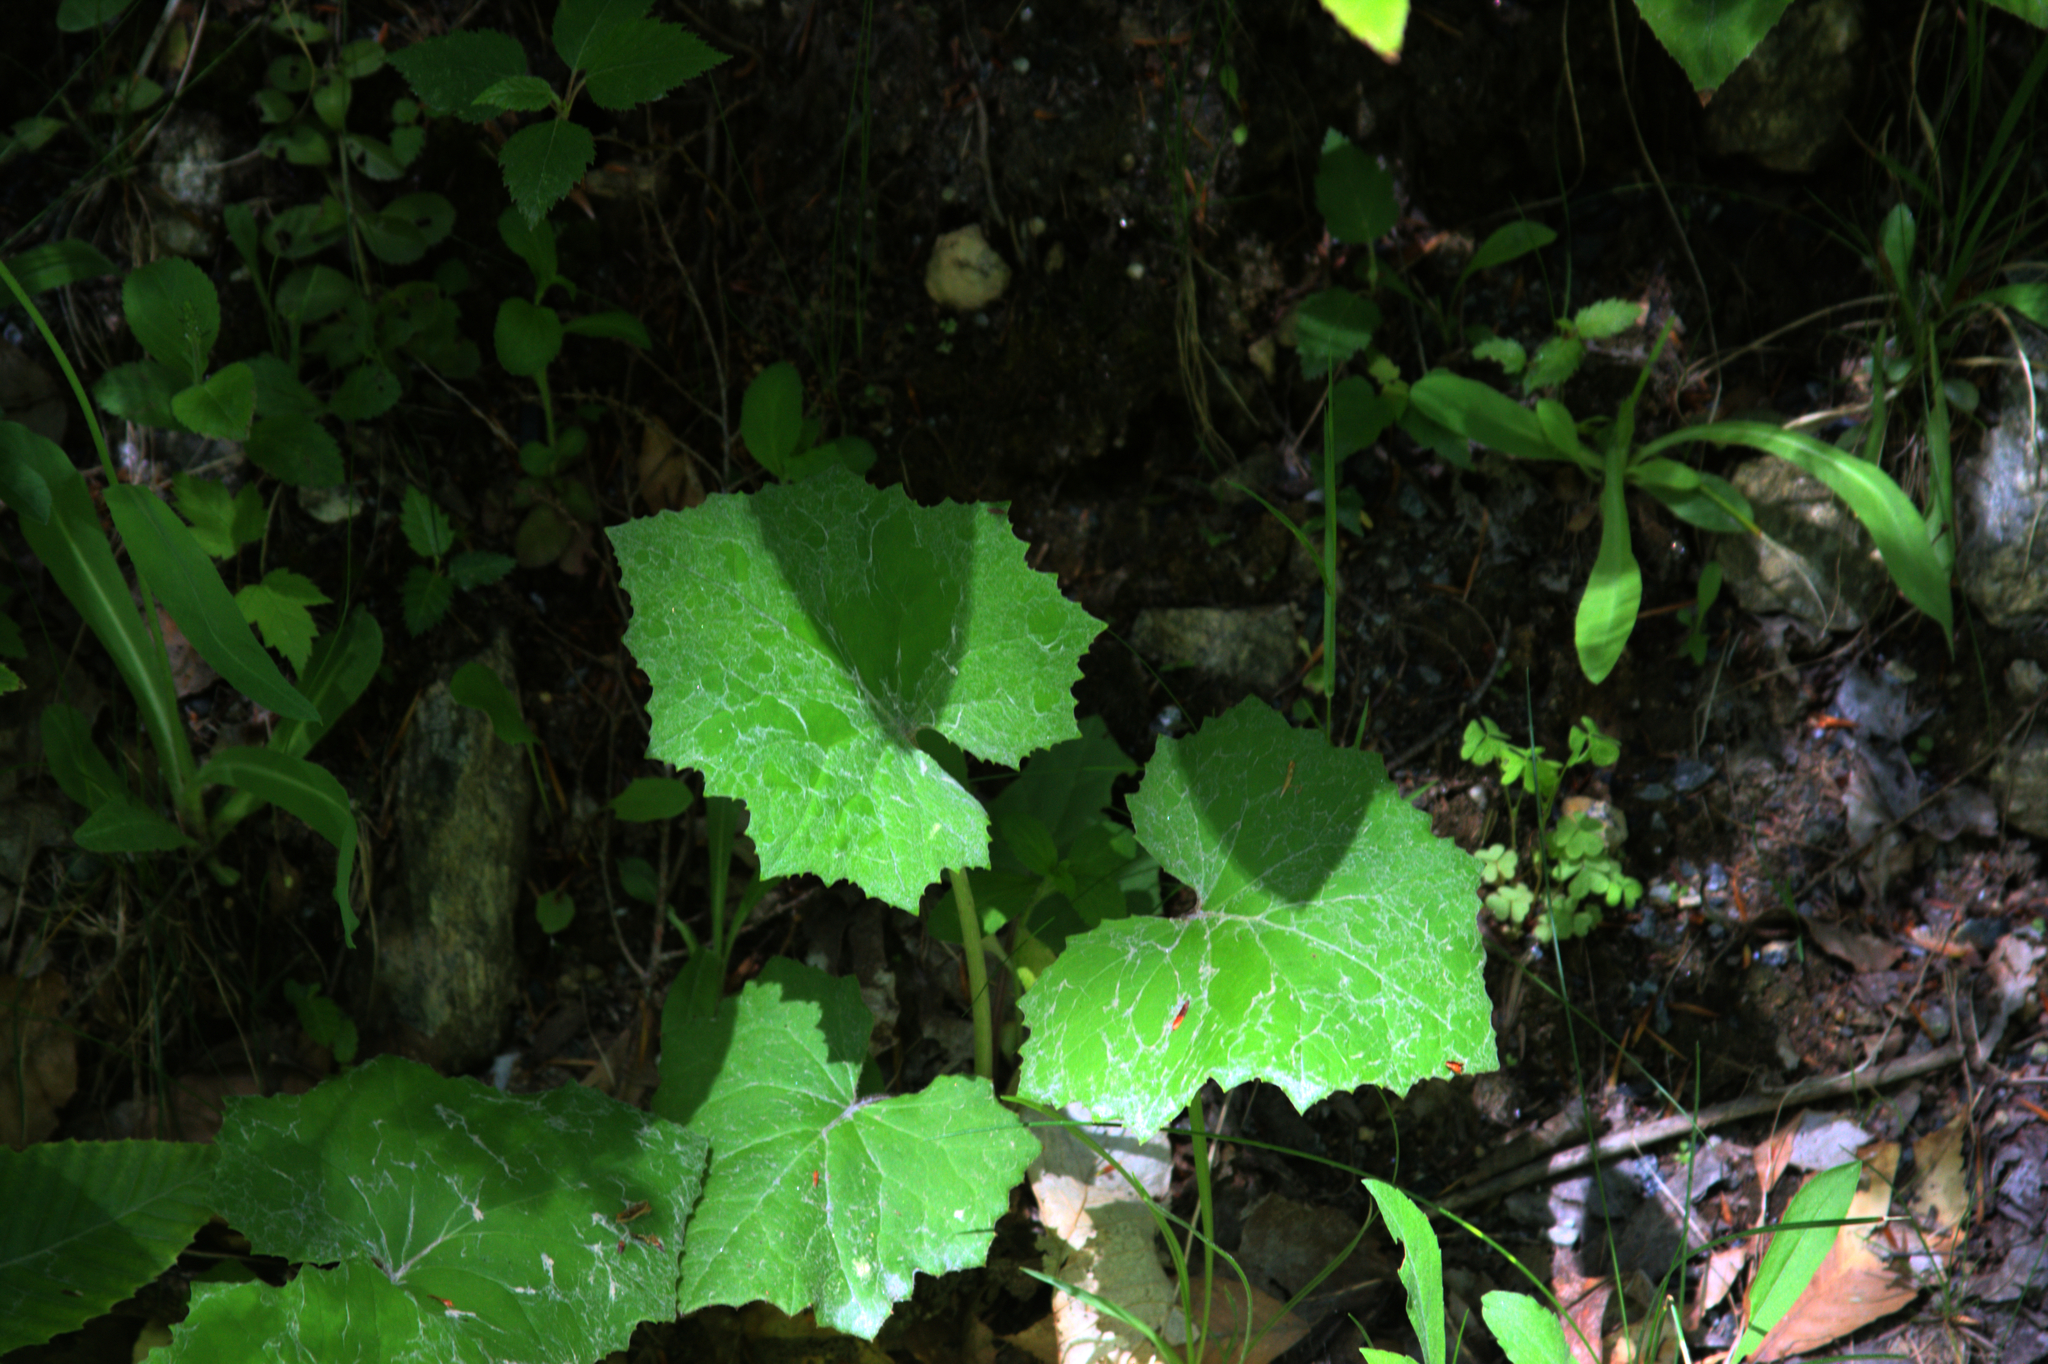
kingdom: Plantae
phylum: Tracheophyta
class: Magnoliopsida
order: Asterales
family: Asteraceae
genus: Tussilago
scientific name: Tussilago farfara
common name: Coltsfoot
